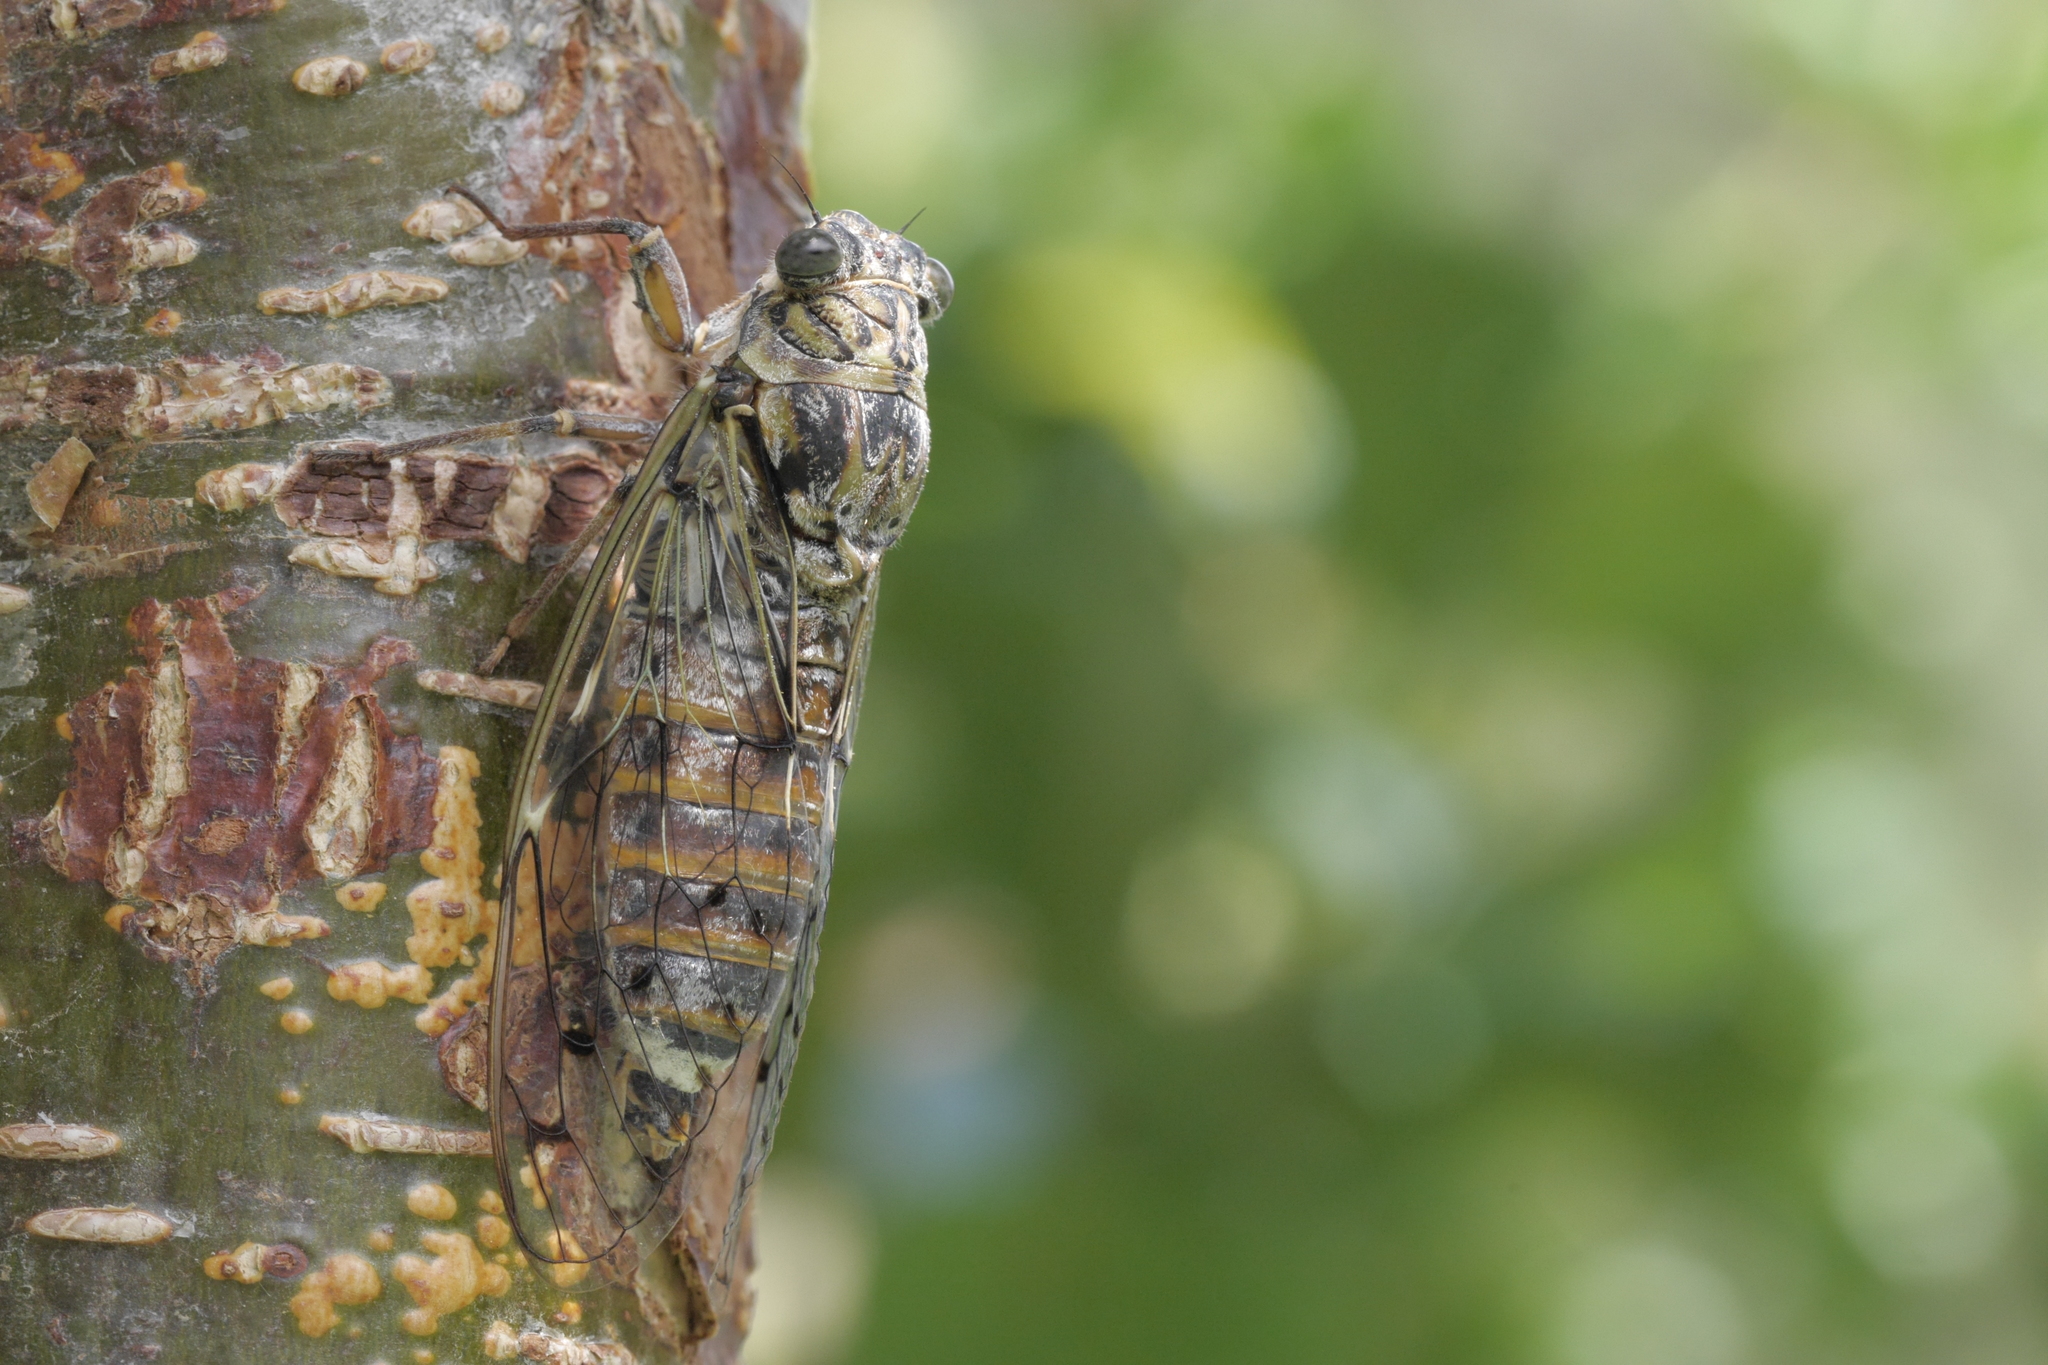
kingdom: Animalia
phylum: Arthropoda
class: Insecta
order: Hemiptera
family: Cicadidae
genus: Cicada
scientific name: Cicada orni
